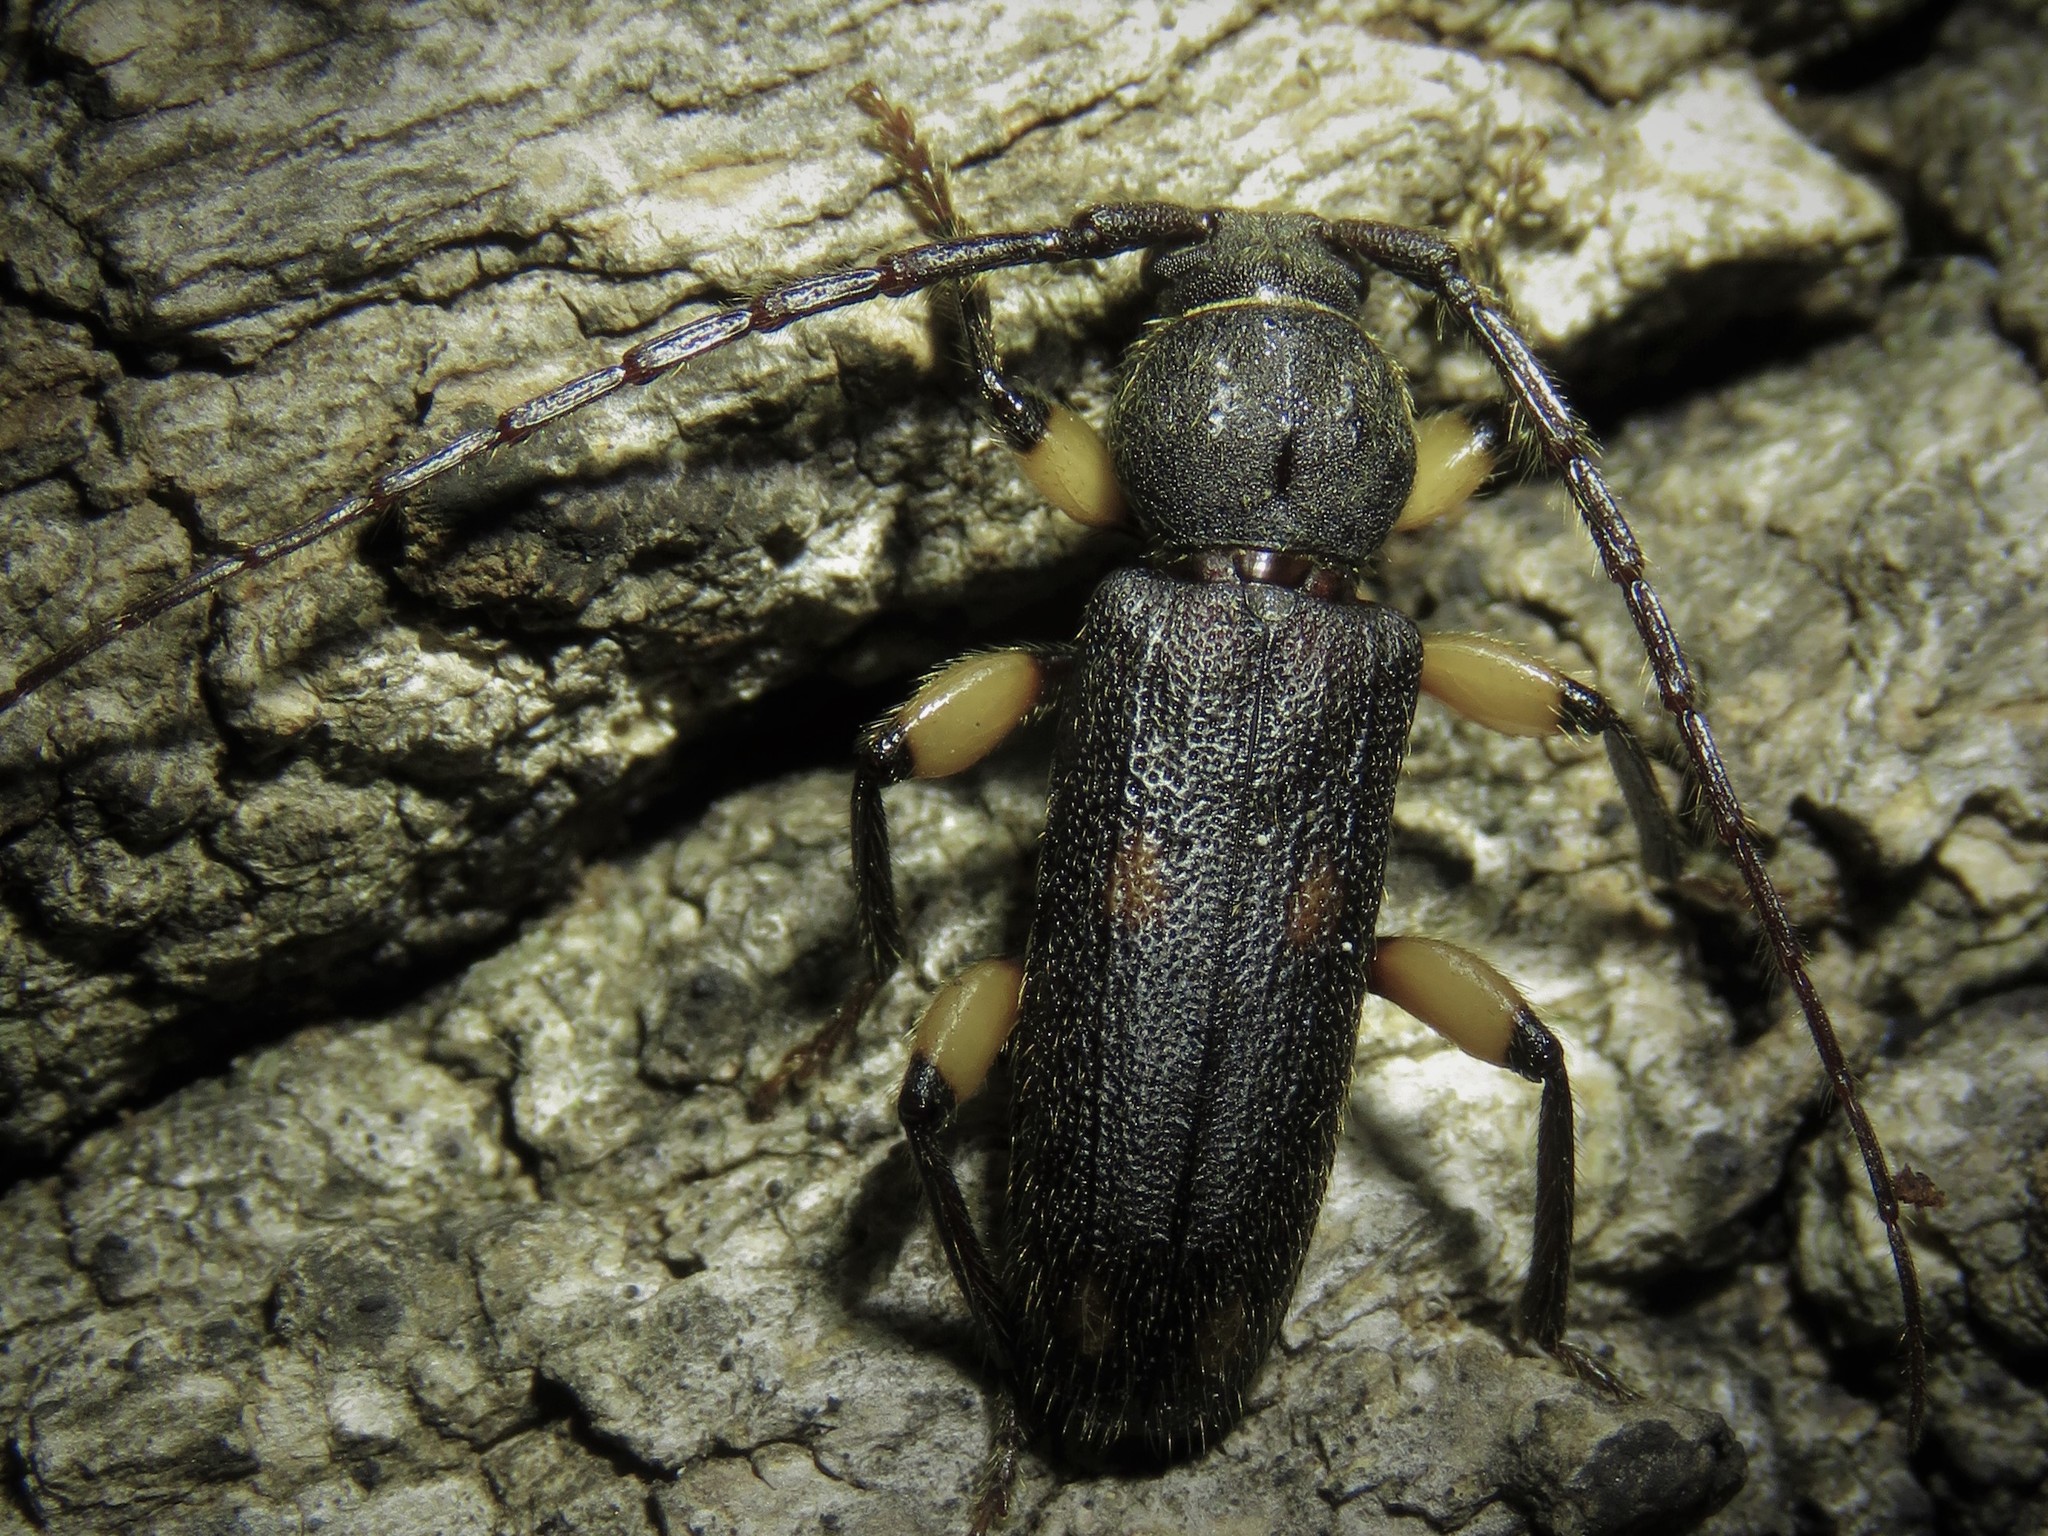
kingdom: Animalia
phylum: Arthropoda
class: Insecta
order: Coleoptera
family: Cerambycidae
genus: Tylonotus
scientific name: Tylonotus bimaculatus
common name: Ash and privet borer
